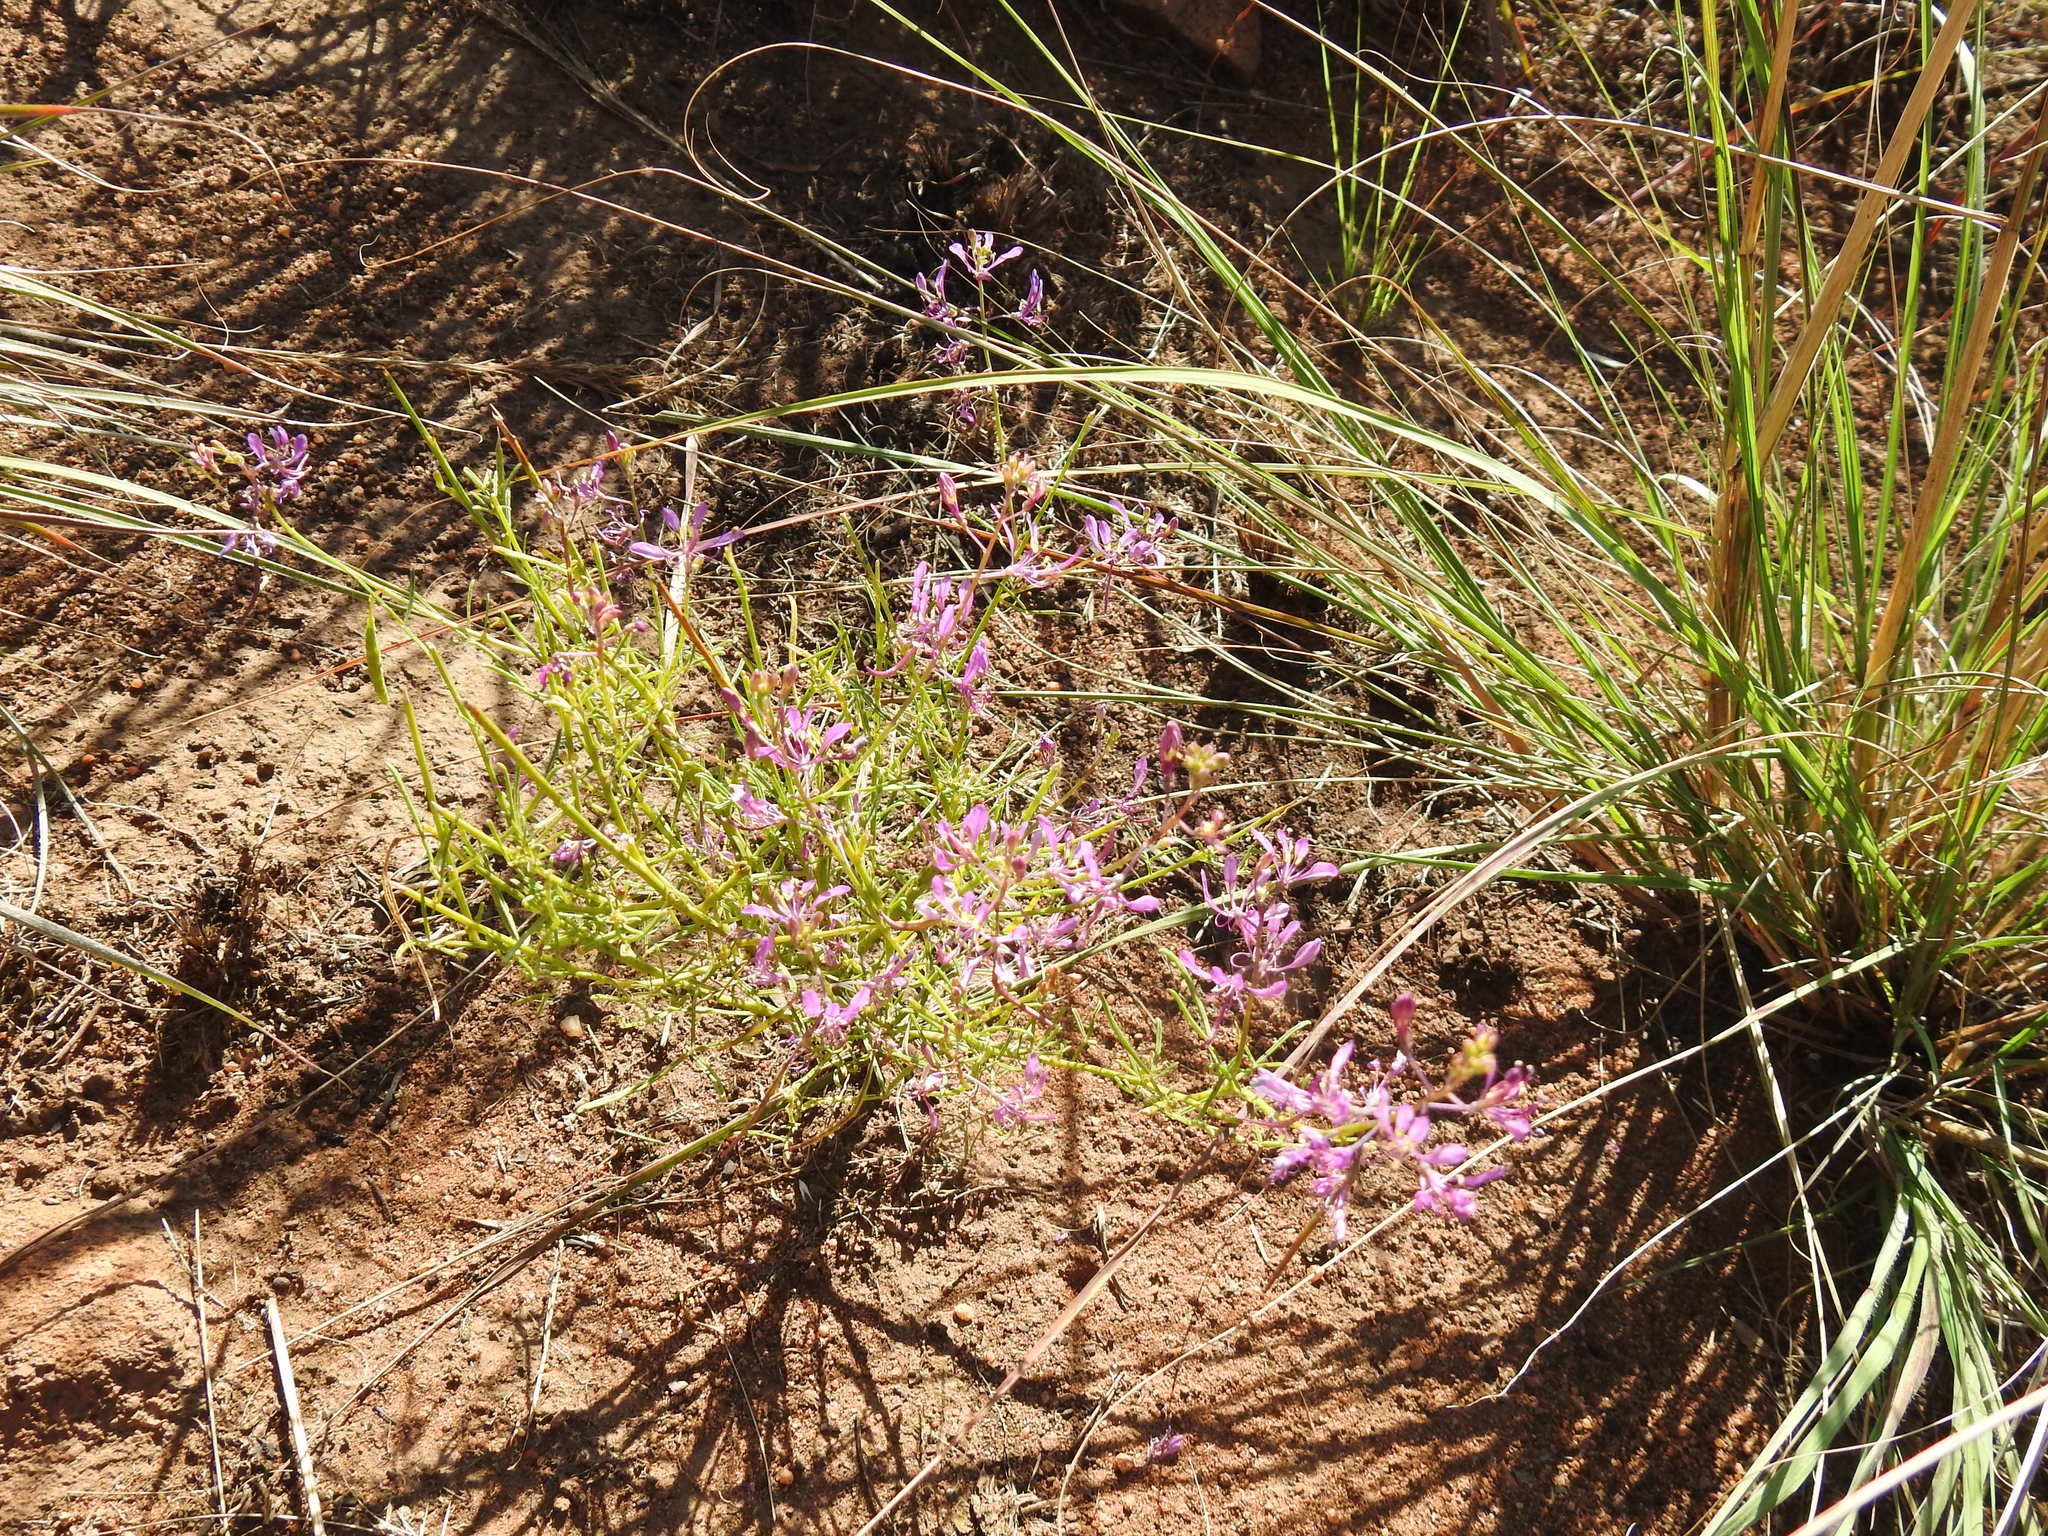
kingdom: Plantae
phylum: Tracheophyta
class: Magnoliopsida
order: Brassicales
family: Cleomaceae
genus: Sieruela
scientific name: Sieruela maculata
